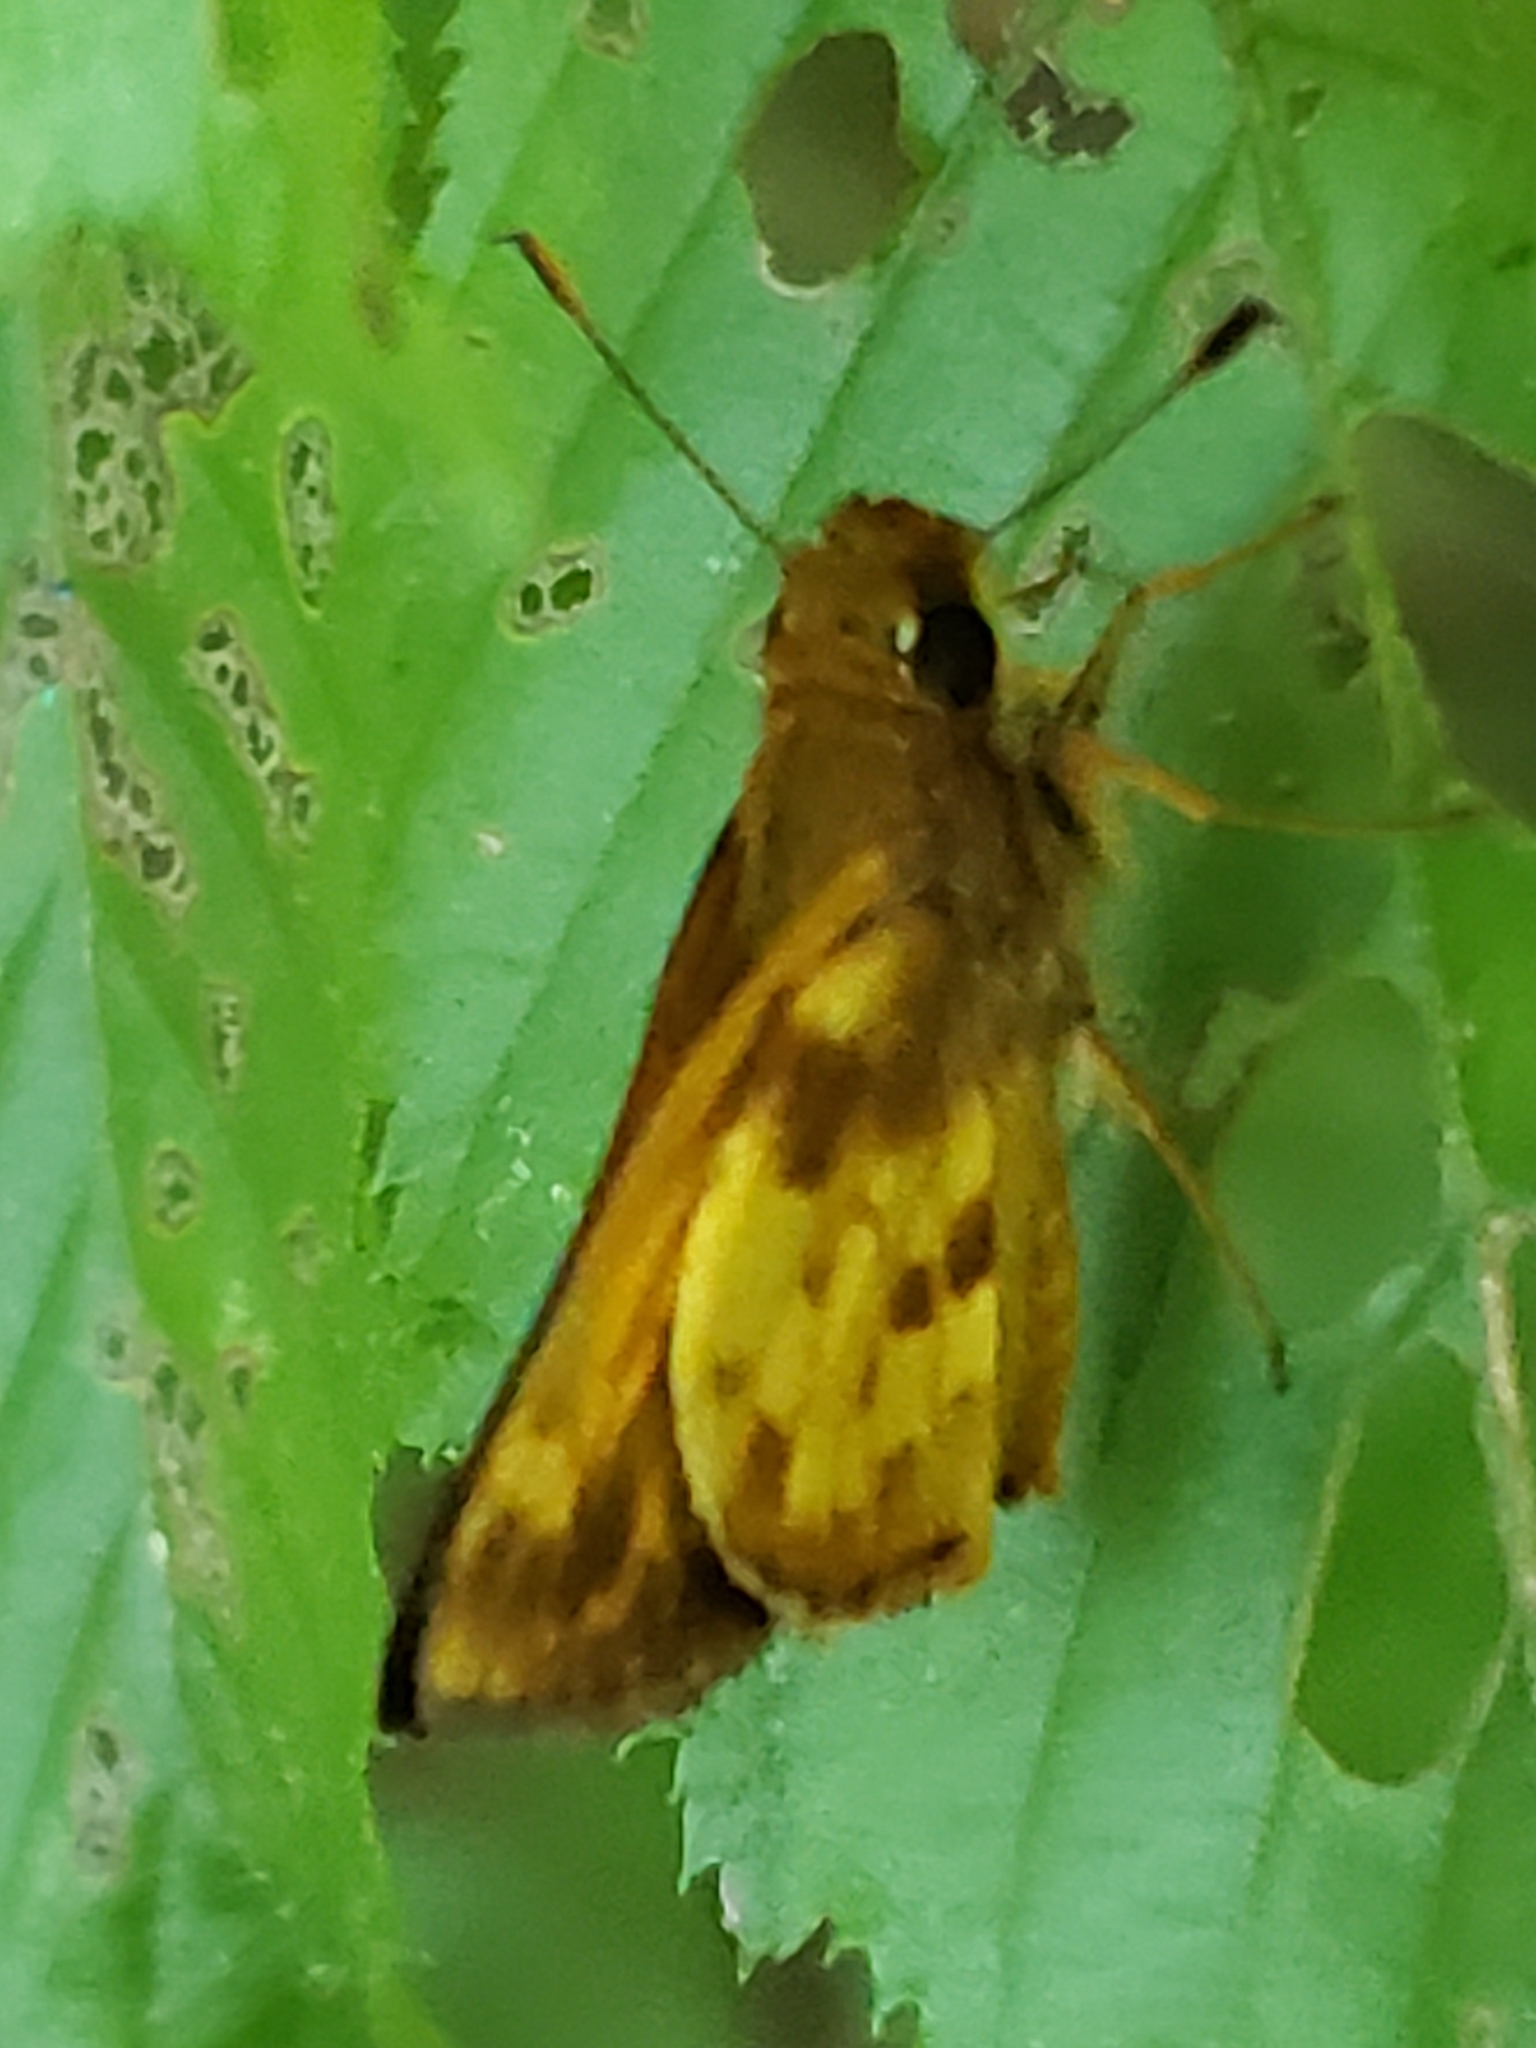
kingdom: Animalia
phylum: Arthropoda
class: Insecta
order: Lepidoptera
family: Hesperiidae
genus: Lon
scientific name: Lon zabulon
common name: Zabulon skipper
